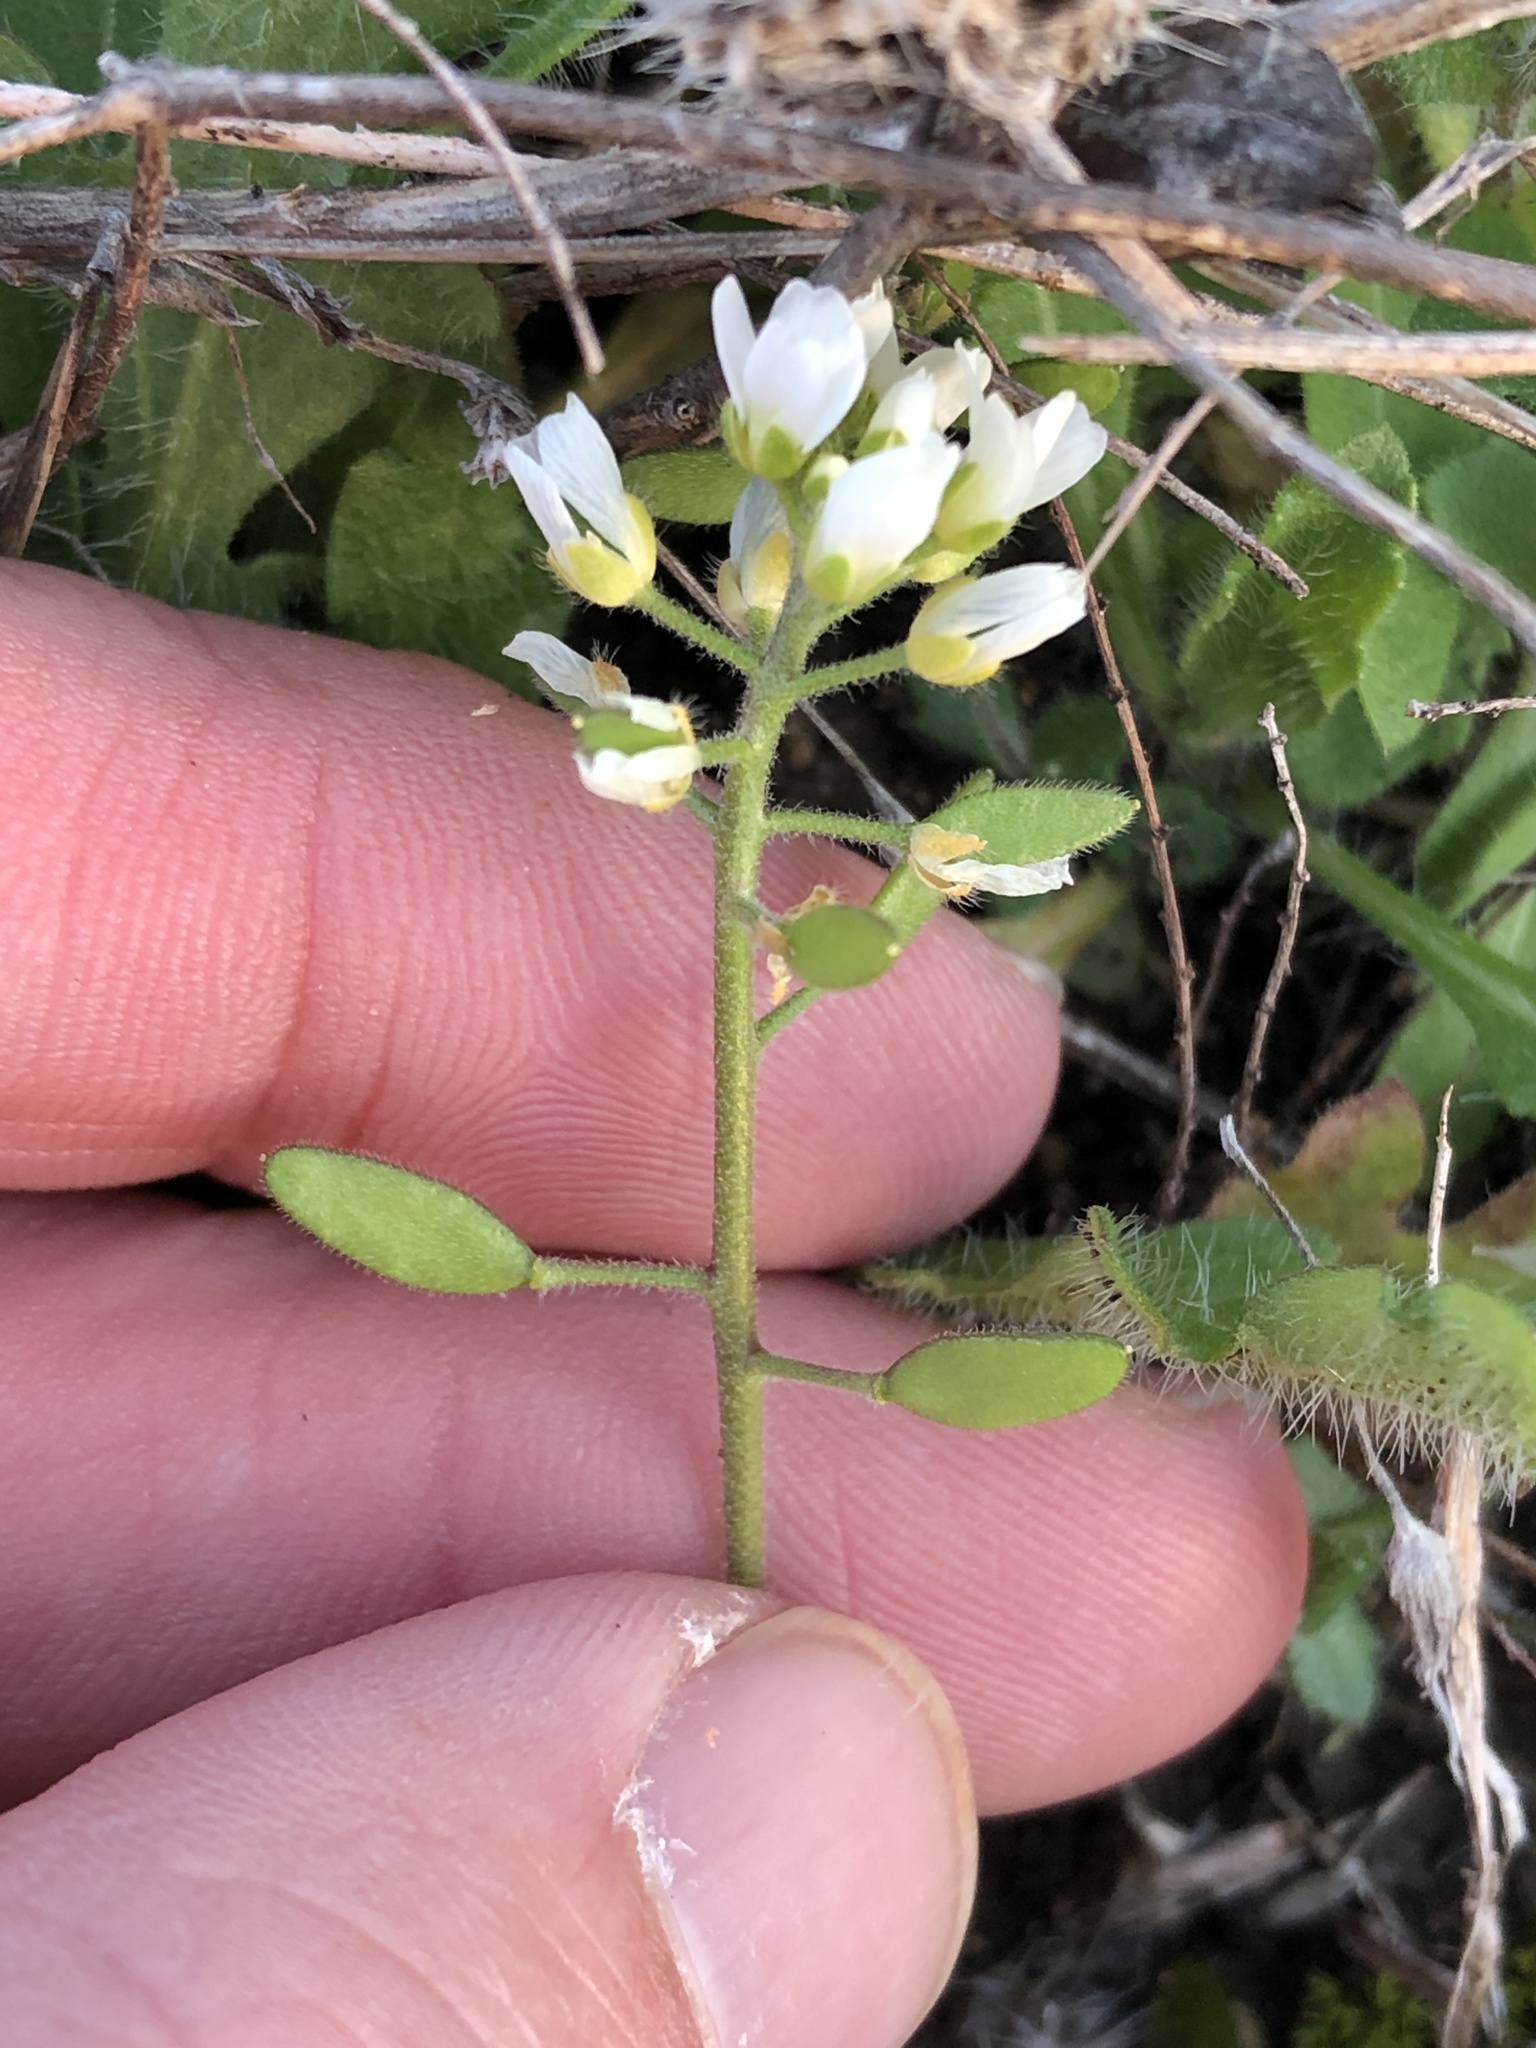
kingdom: Plantae
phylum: Tracheophyta
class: Magnoliopsida
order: Brassicales
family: Brassicaceae
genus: Tomostima
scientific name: Tomostima cuneifolia
